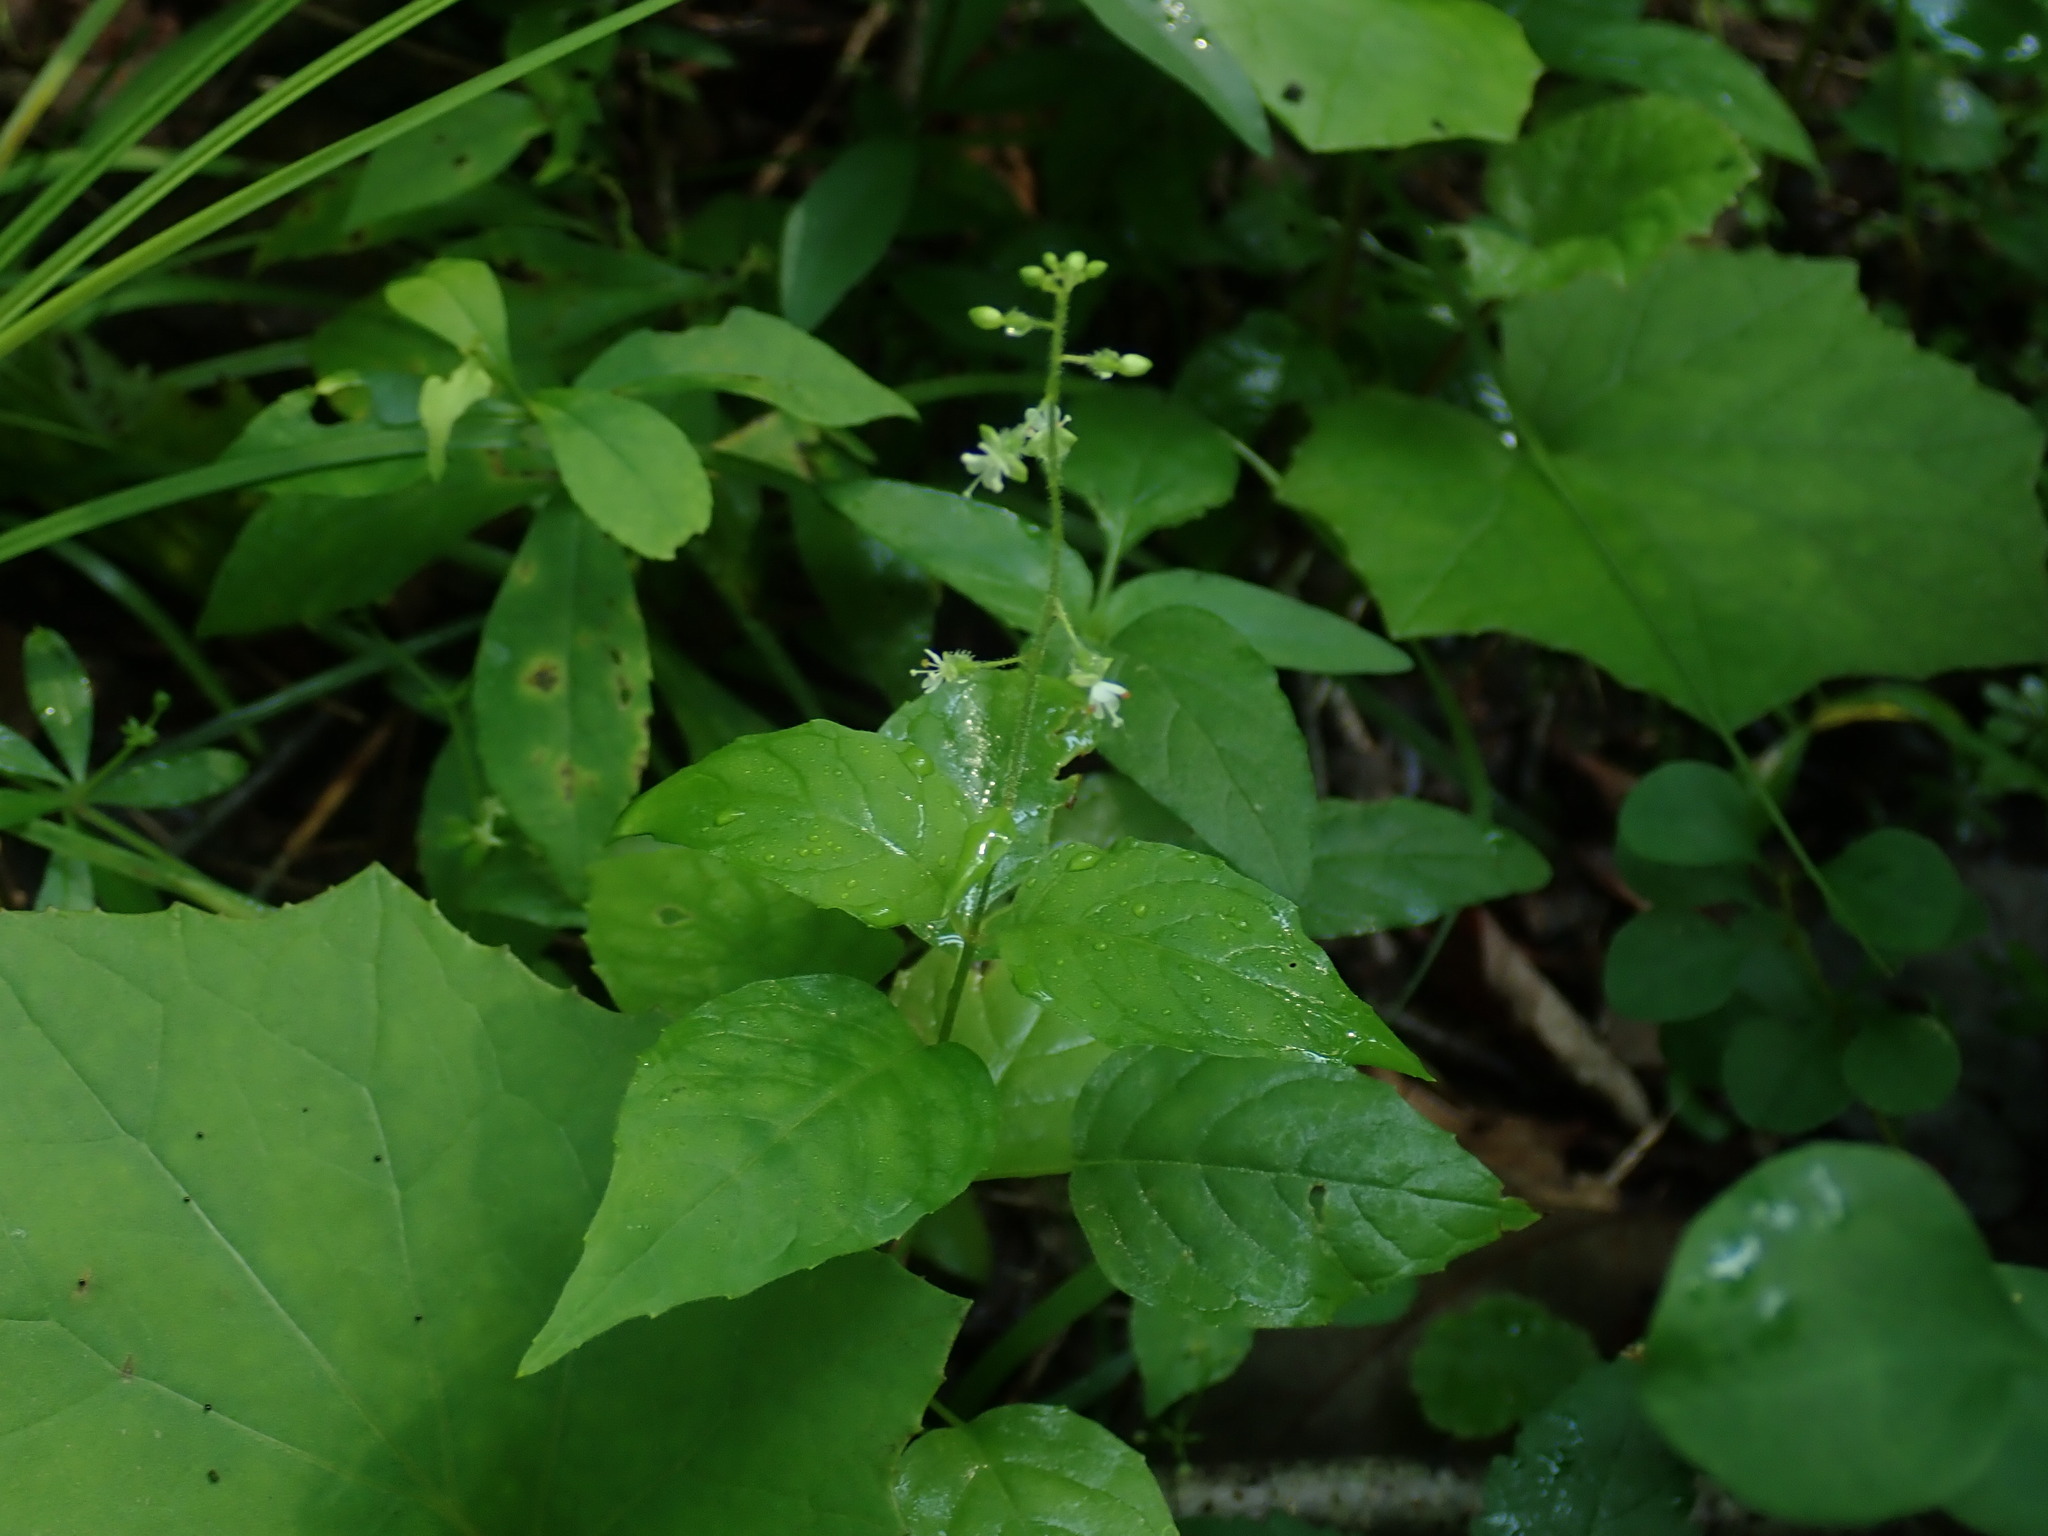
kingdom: Plantae
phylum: Tracheophyta
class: Magnoliopsida
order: Myrtales
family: Onagraceae
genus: Circaea
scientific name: Circaea alpina
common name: Alpine enchanter's-nightshade
